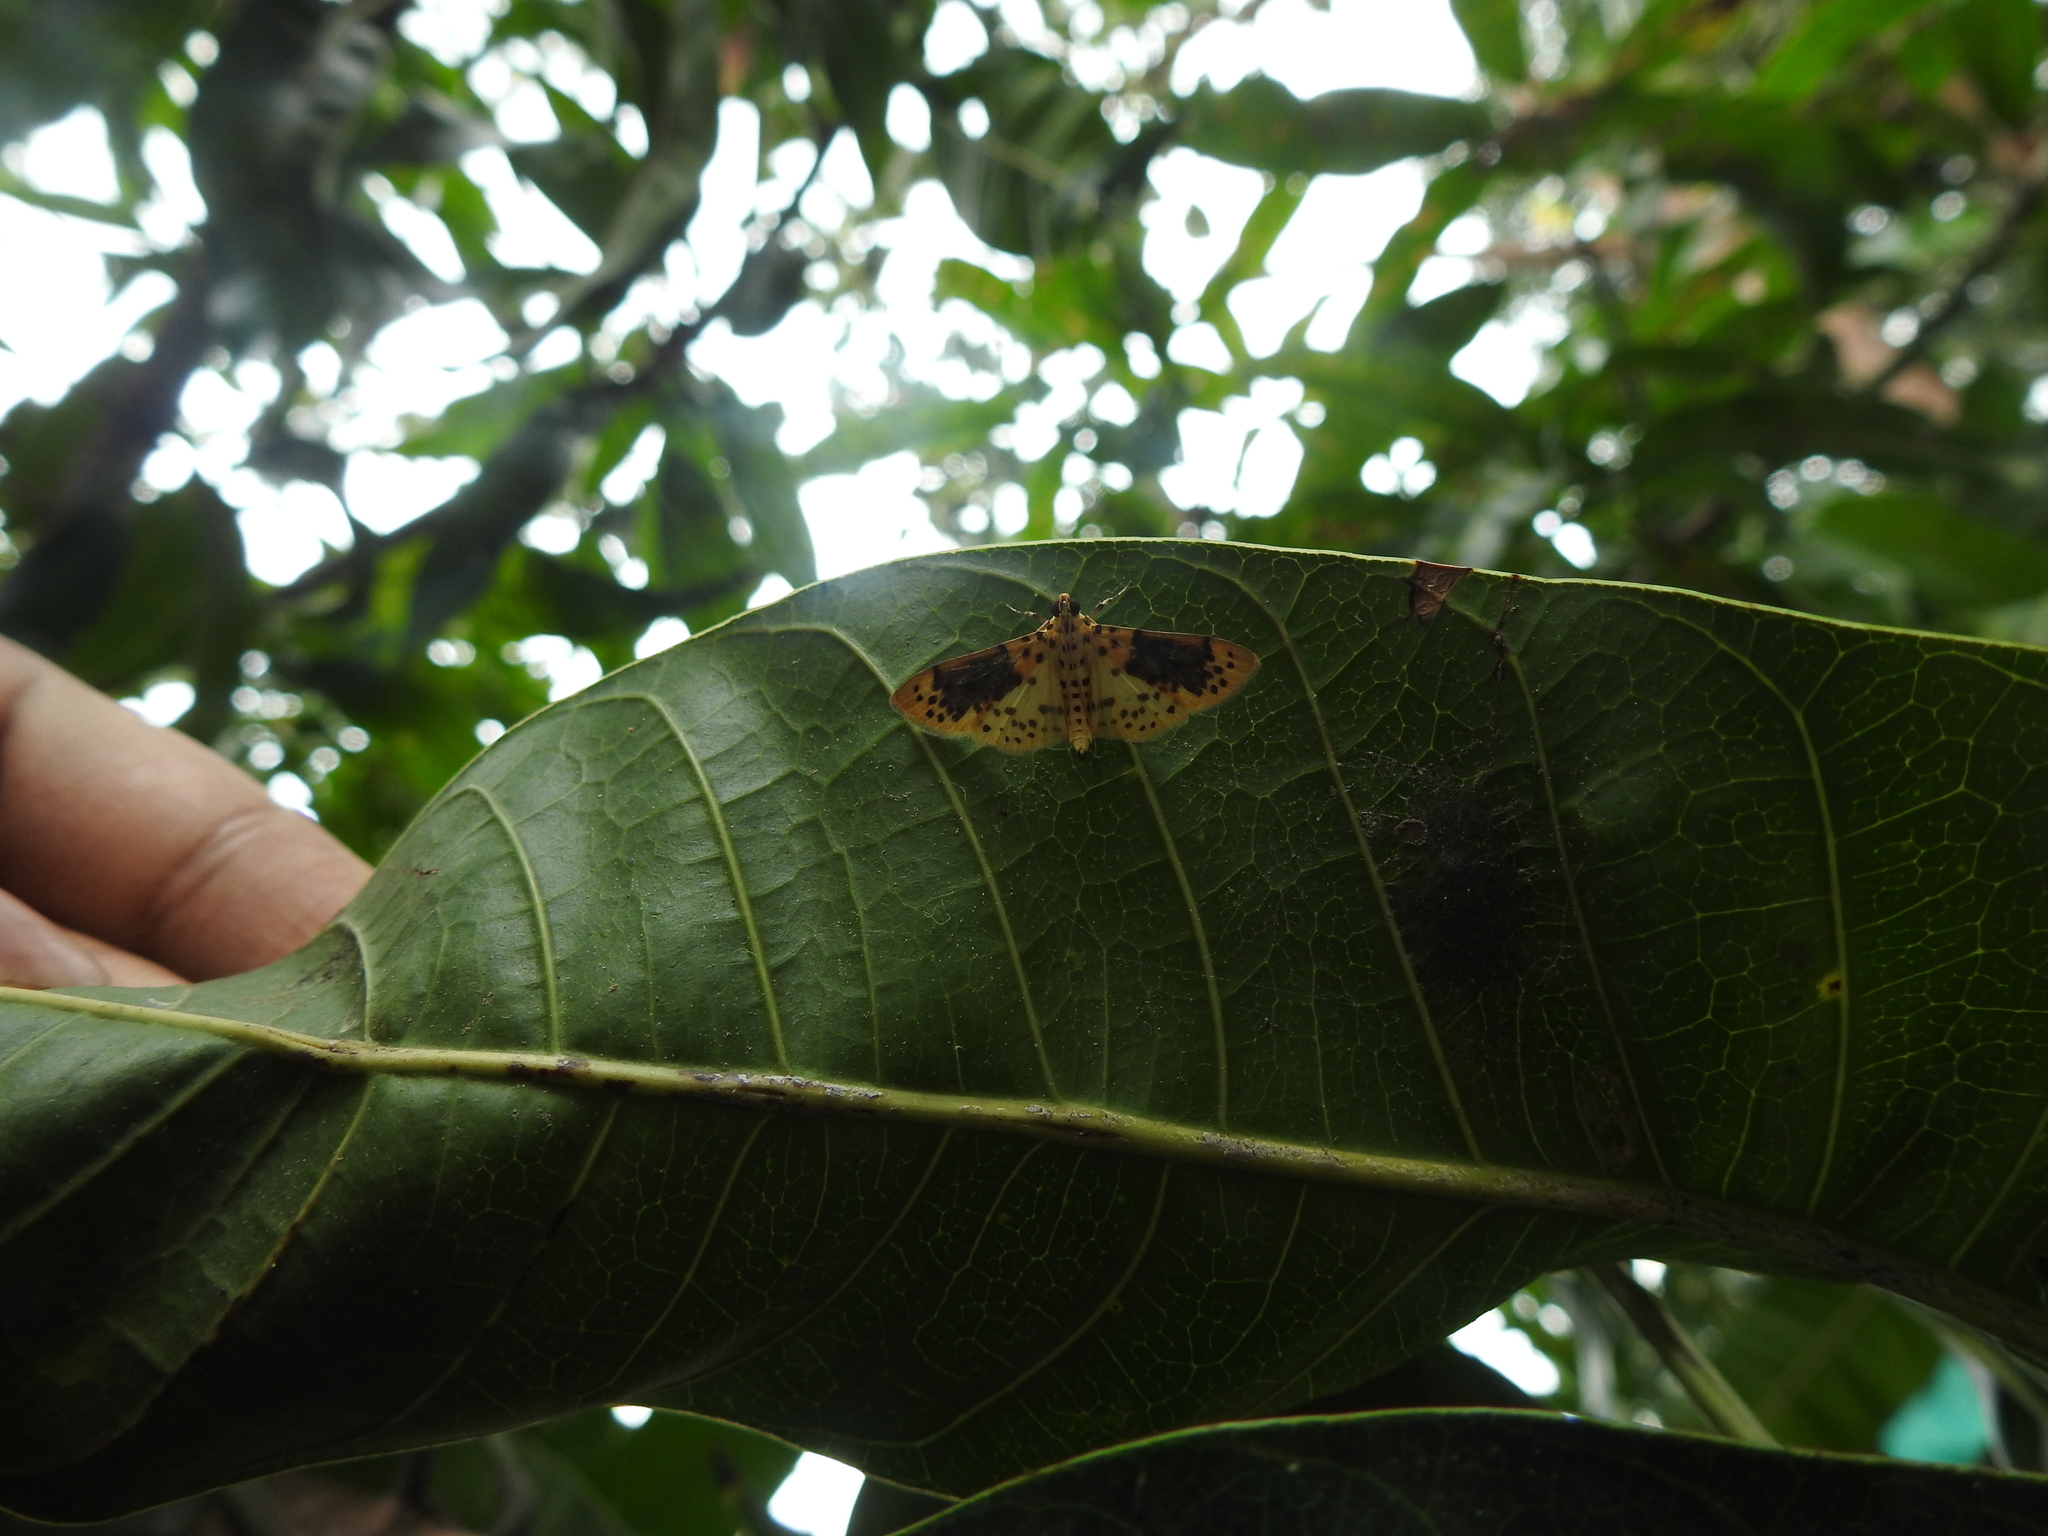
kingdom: Animalia
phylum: Arthropoda
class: Insecta
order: Lepidoptera
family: Crambidae
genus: Conogethes
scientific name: Conogethes semifascialis
